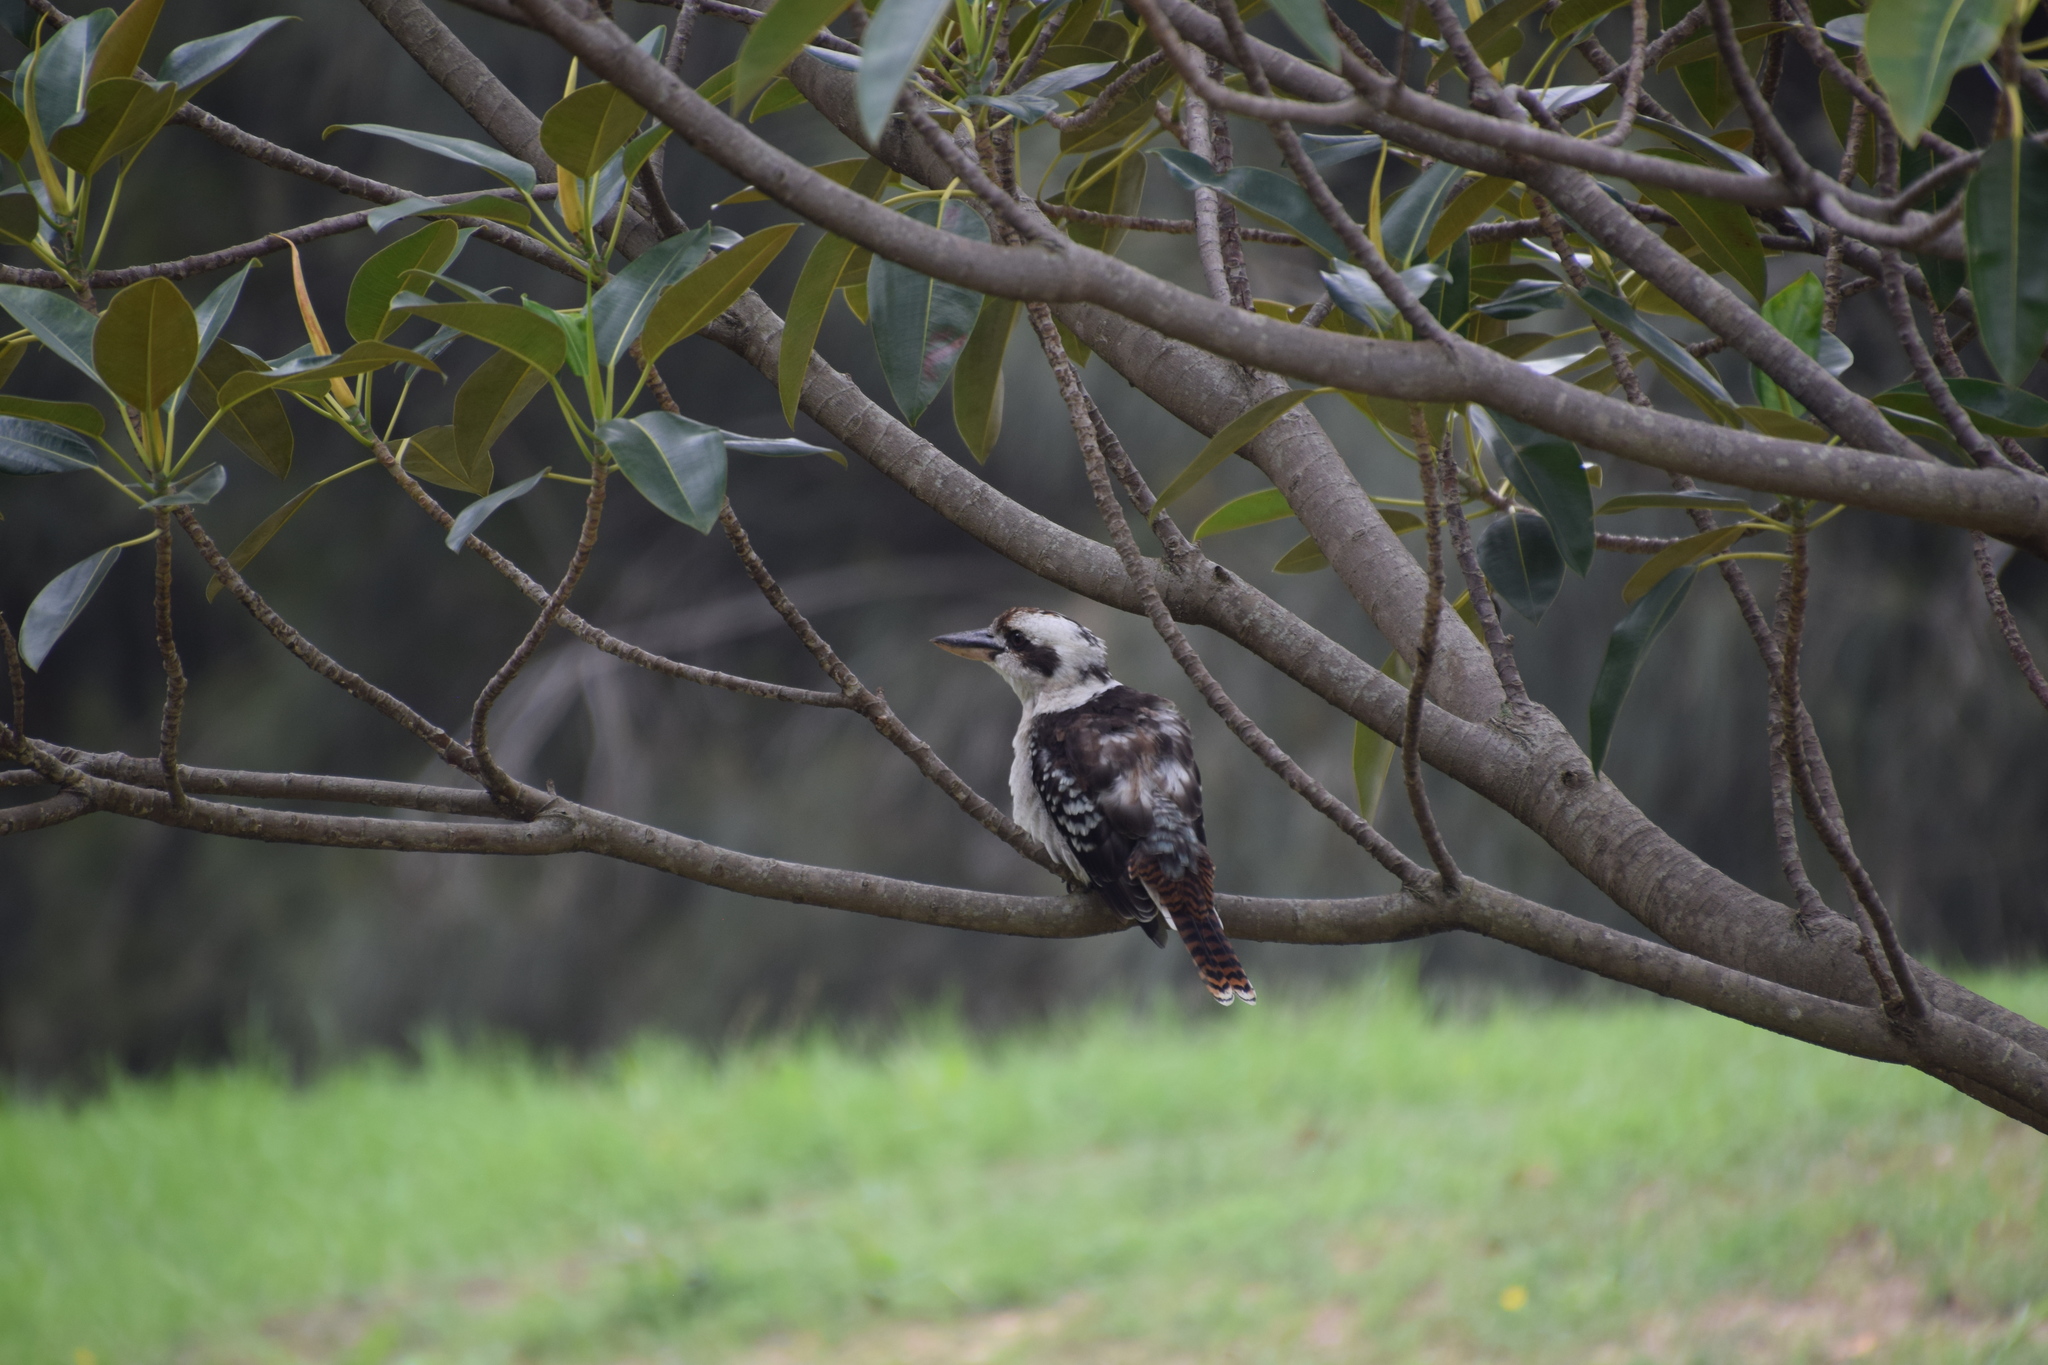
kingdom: Animalia
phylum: Chordata
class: Aves
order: Coraciiformes
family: Alcedinidae
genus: Dacelo
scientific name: Dacelo novaeguineae
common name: Laughing kookaburra
